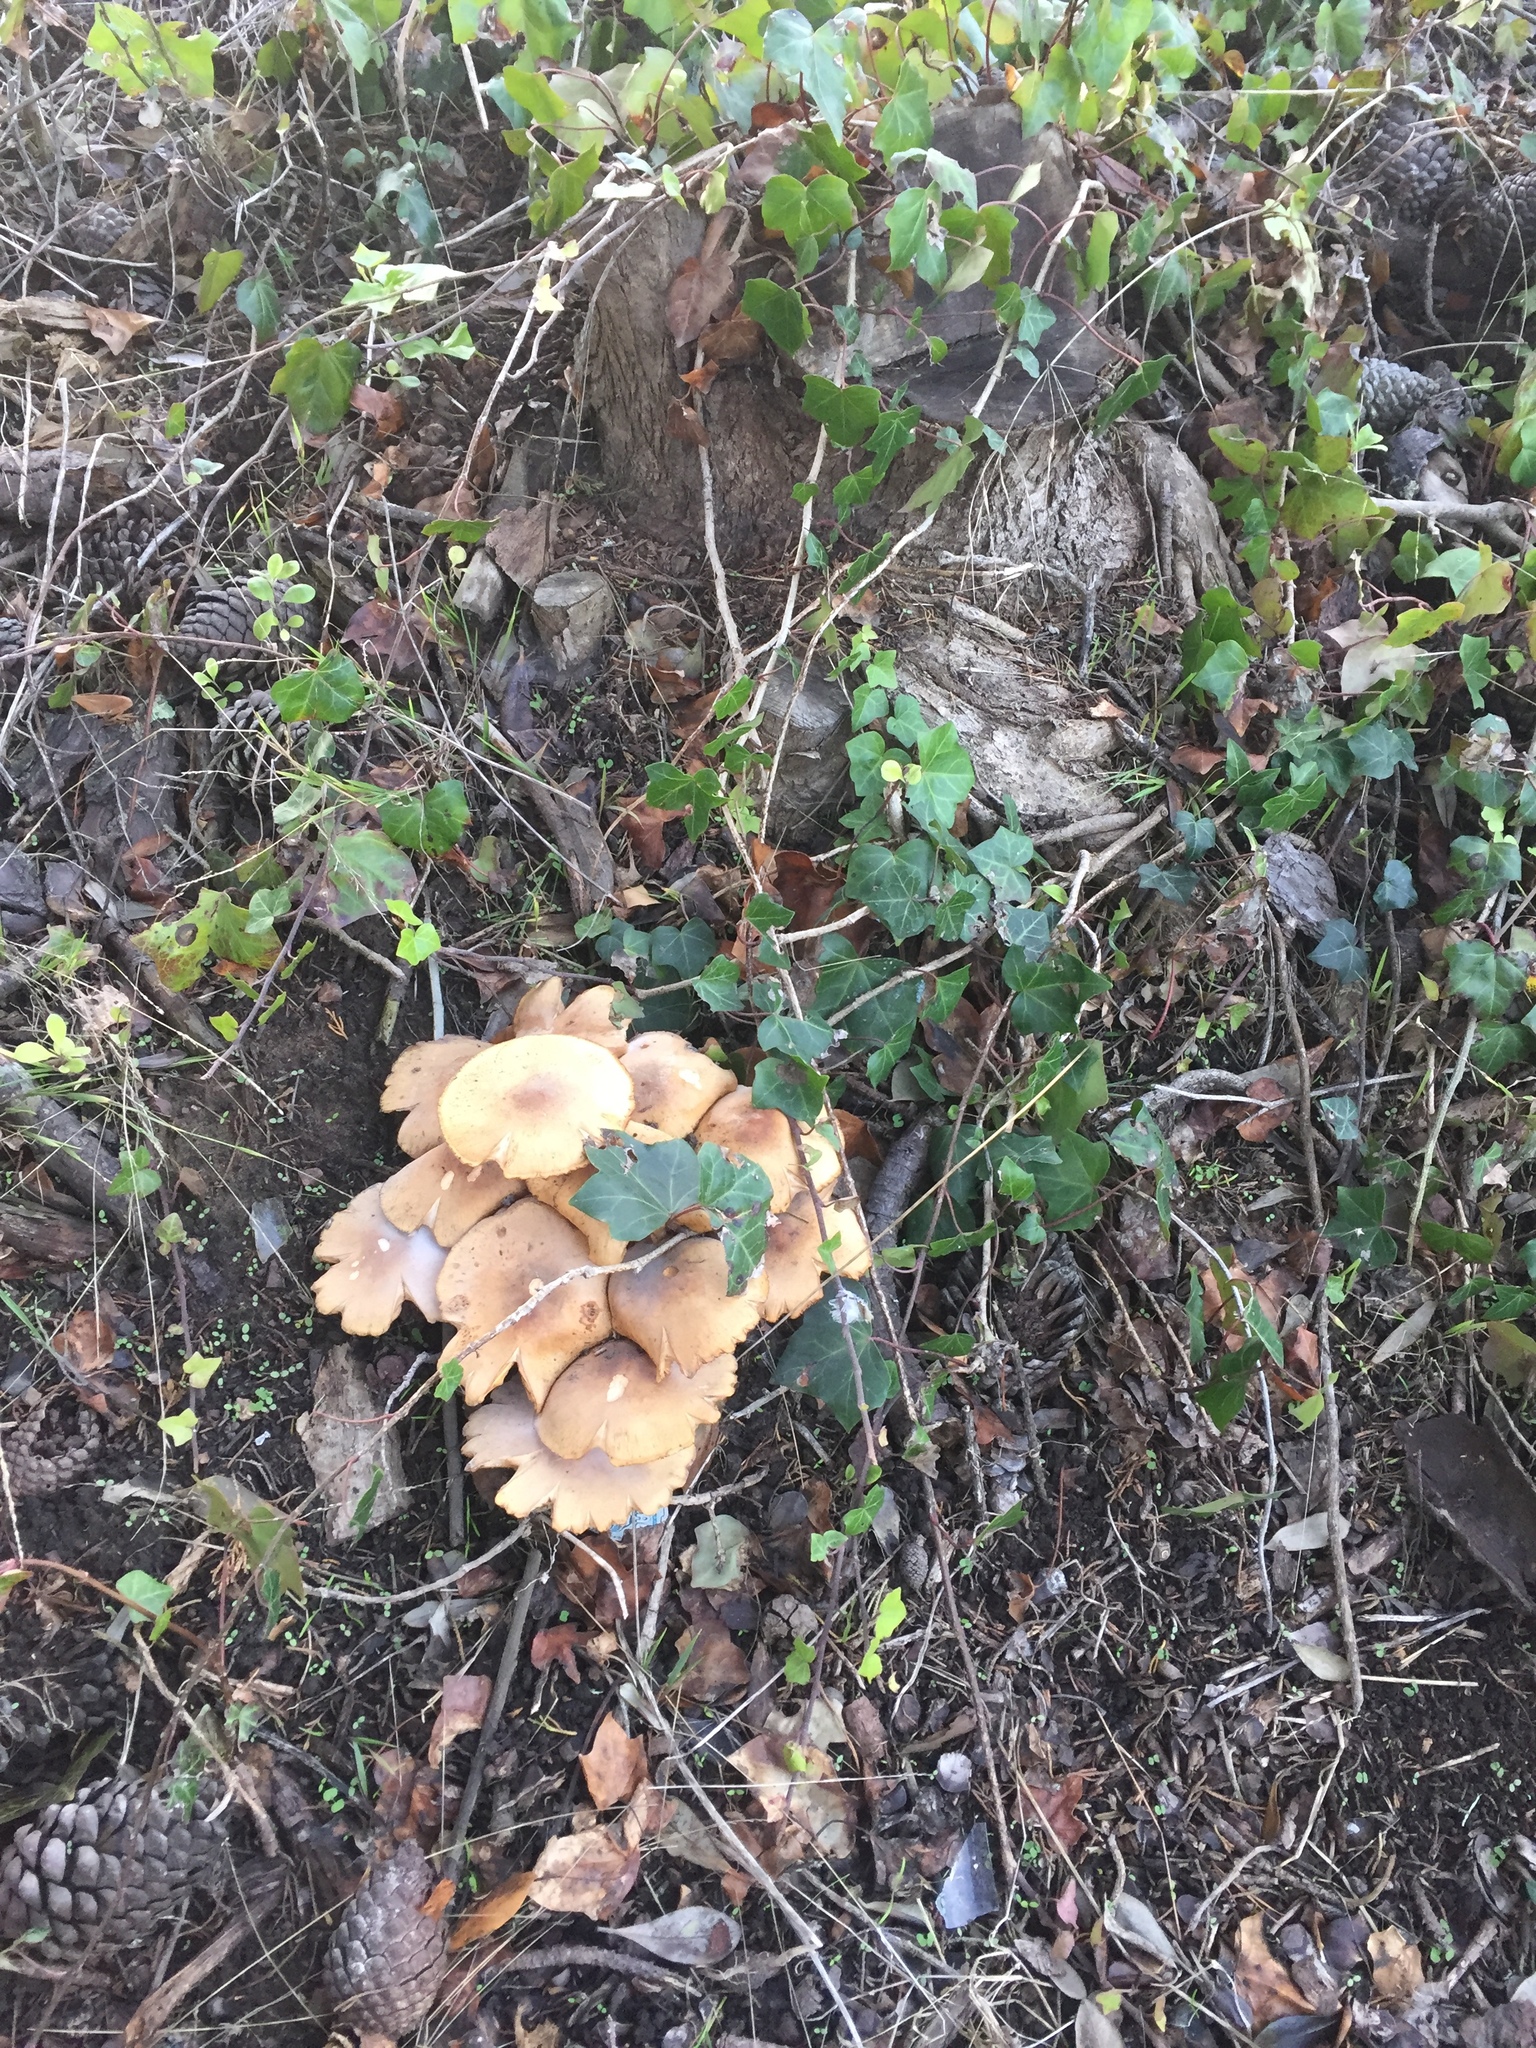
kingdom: Fungi
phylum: Basidiomycota
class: Agaricomycetes
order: Agaricales
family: Physalacriaceae
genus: Armillaria
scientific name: Armillaria mellea
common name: Honey fungus
